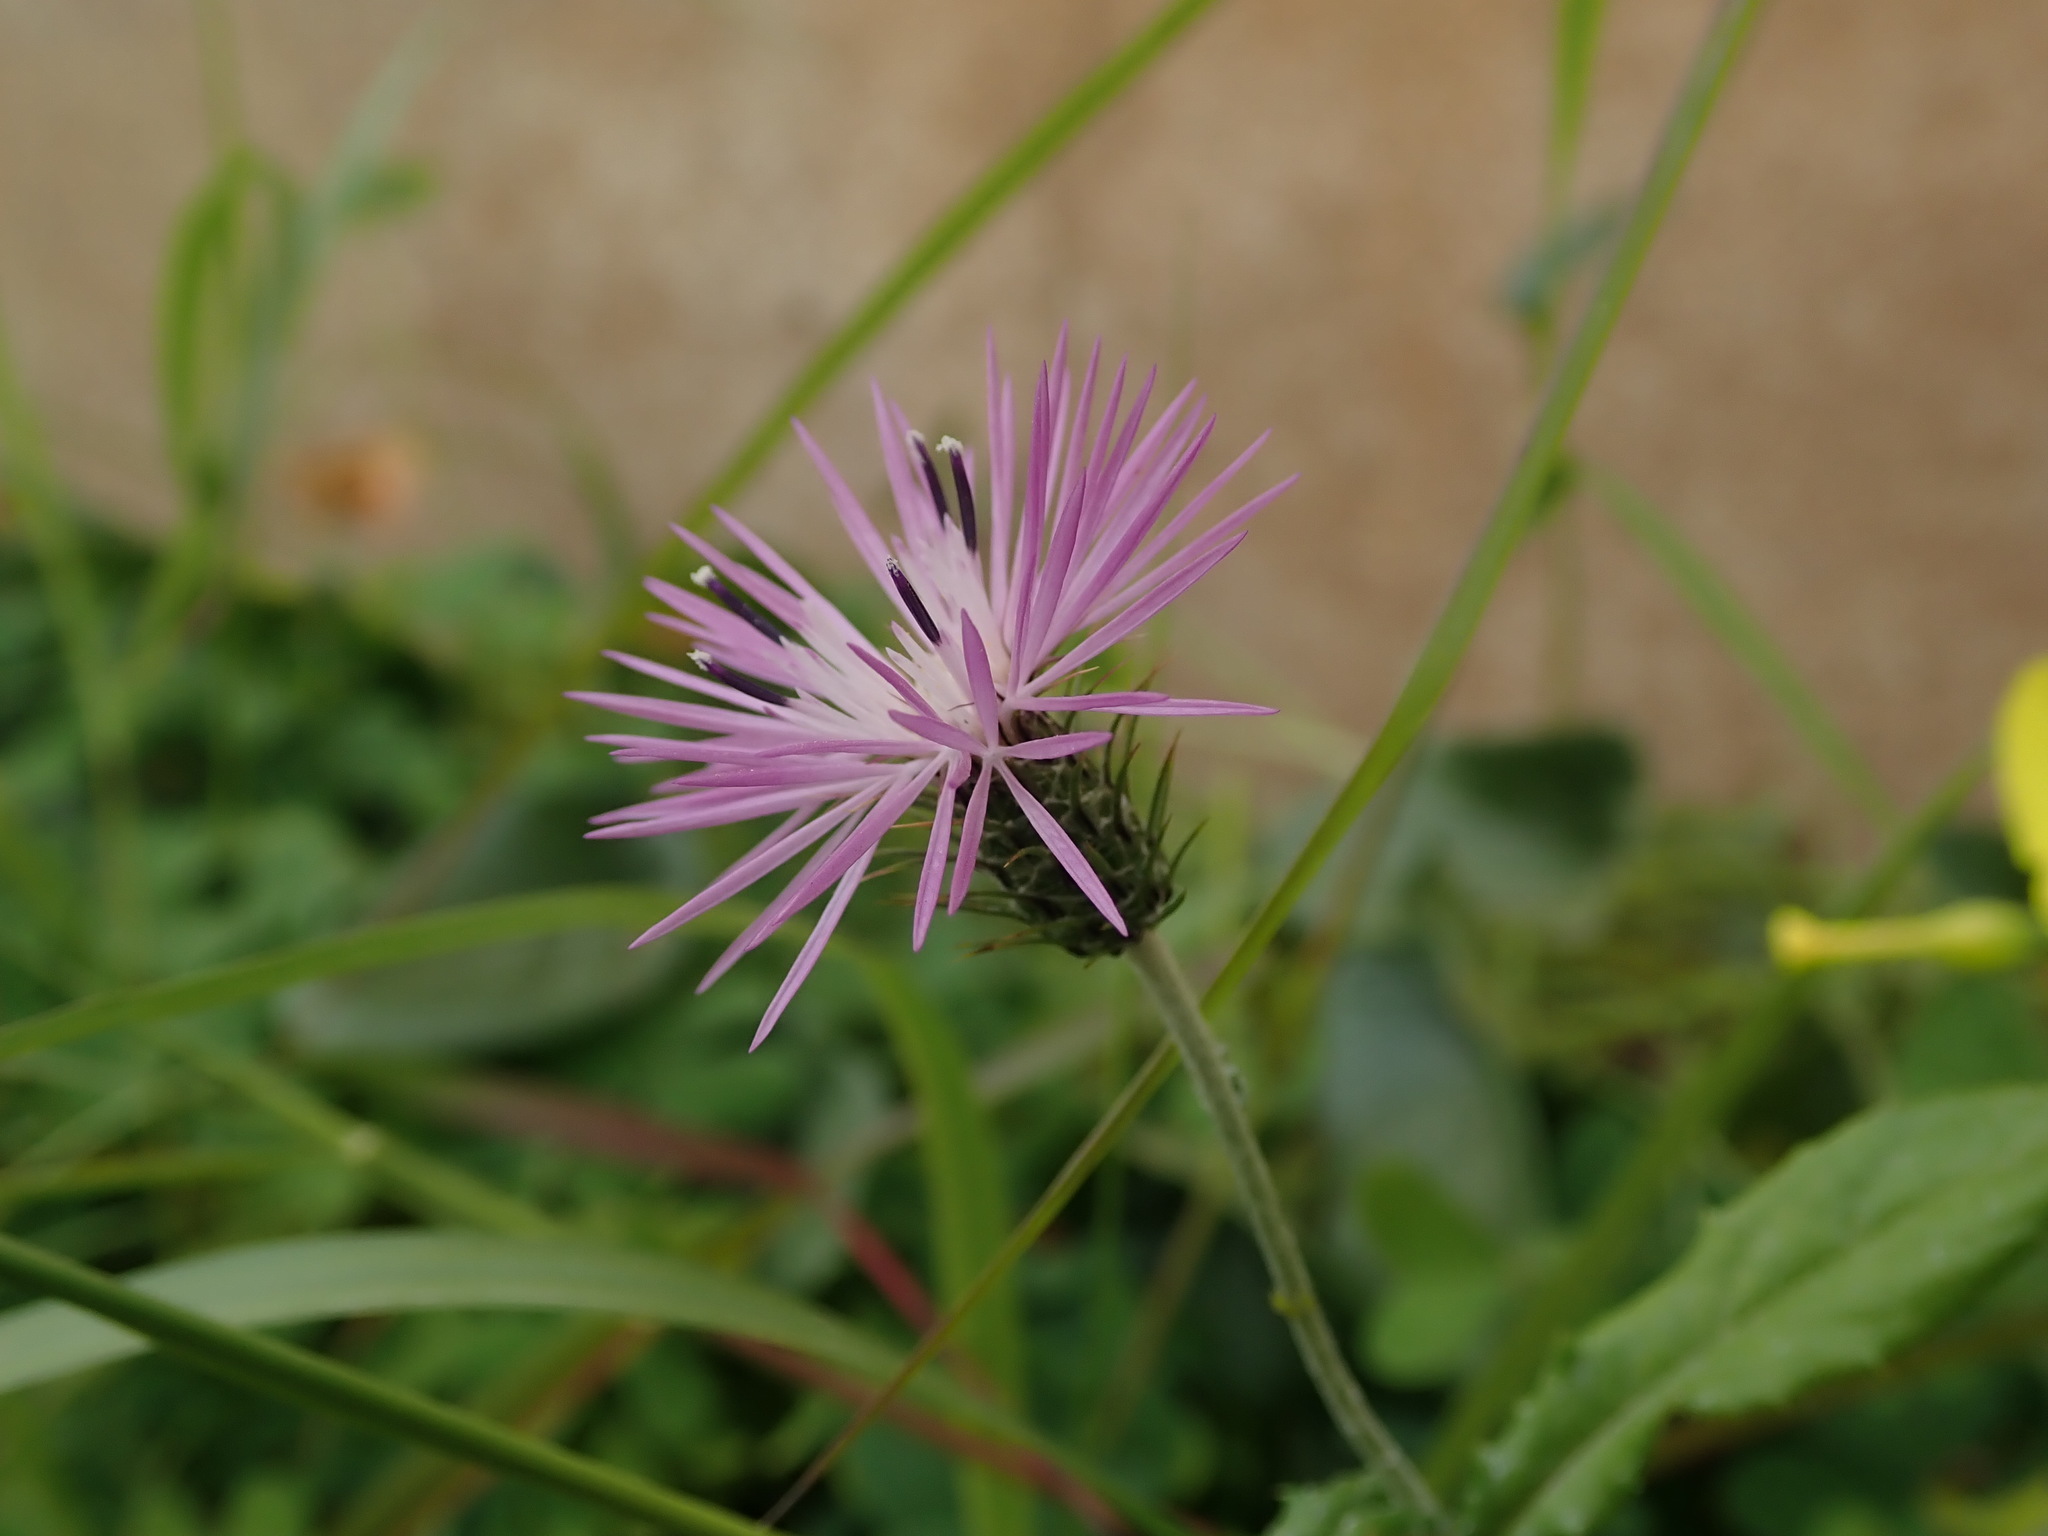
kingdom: Plantae
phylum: Tracheophyta
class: Magnoliopsida
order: Asterales
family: Asteraceae
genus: Galactites
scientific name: Galactites tomentosa
